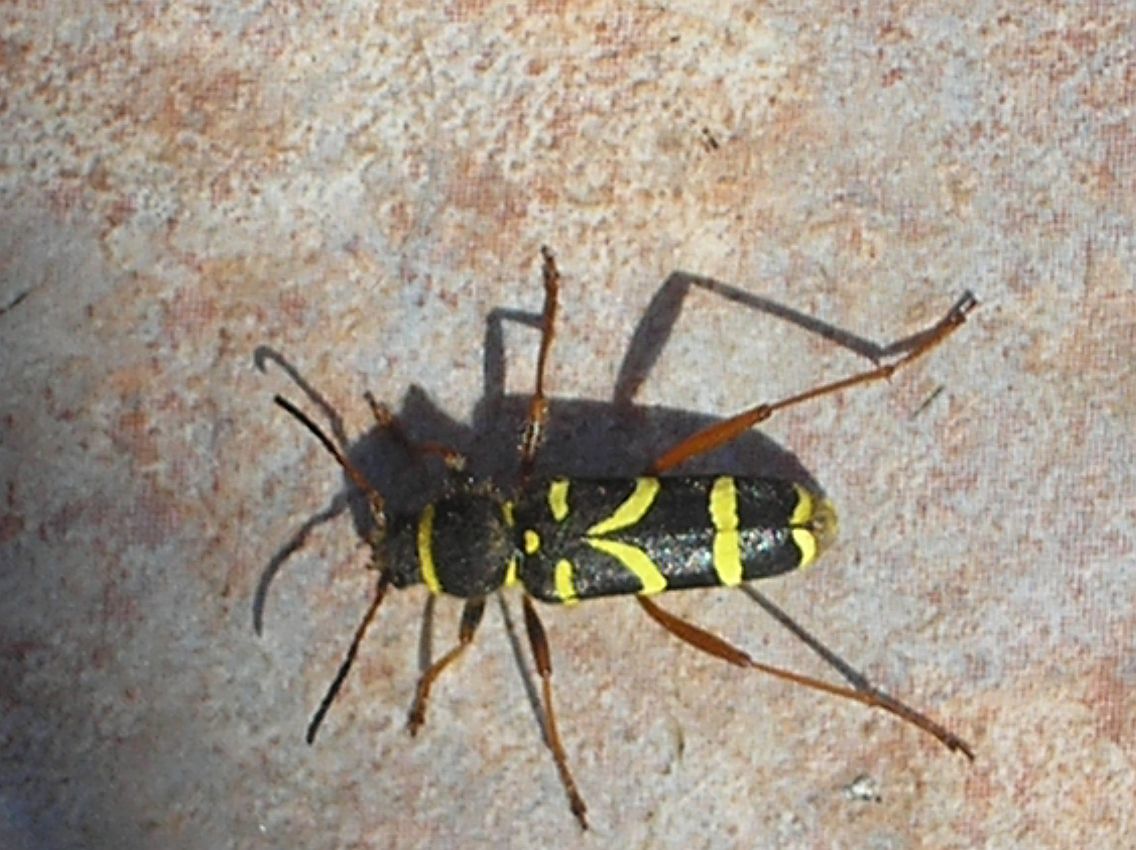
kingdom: Animalia
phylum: Arthropoda
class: Insecta
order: Coleoptera
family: Cerambycidae
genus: Clytus
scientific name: Clytus arietis
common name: Wasp beetle
